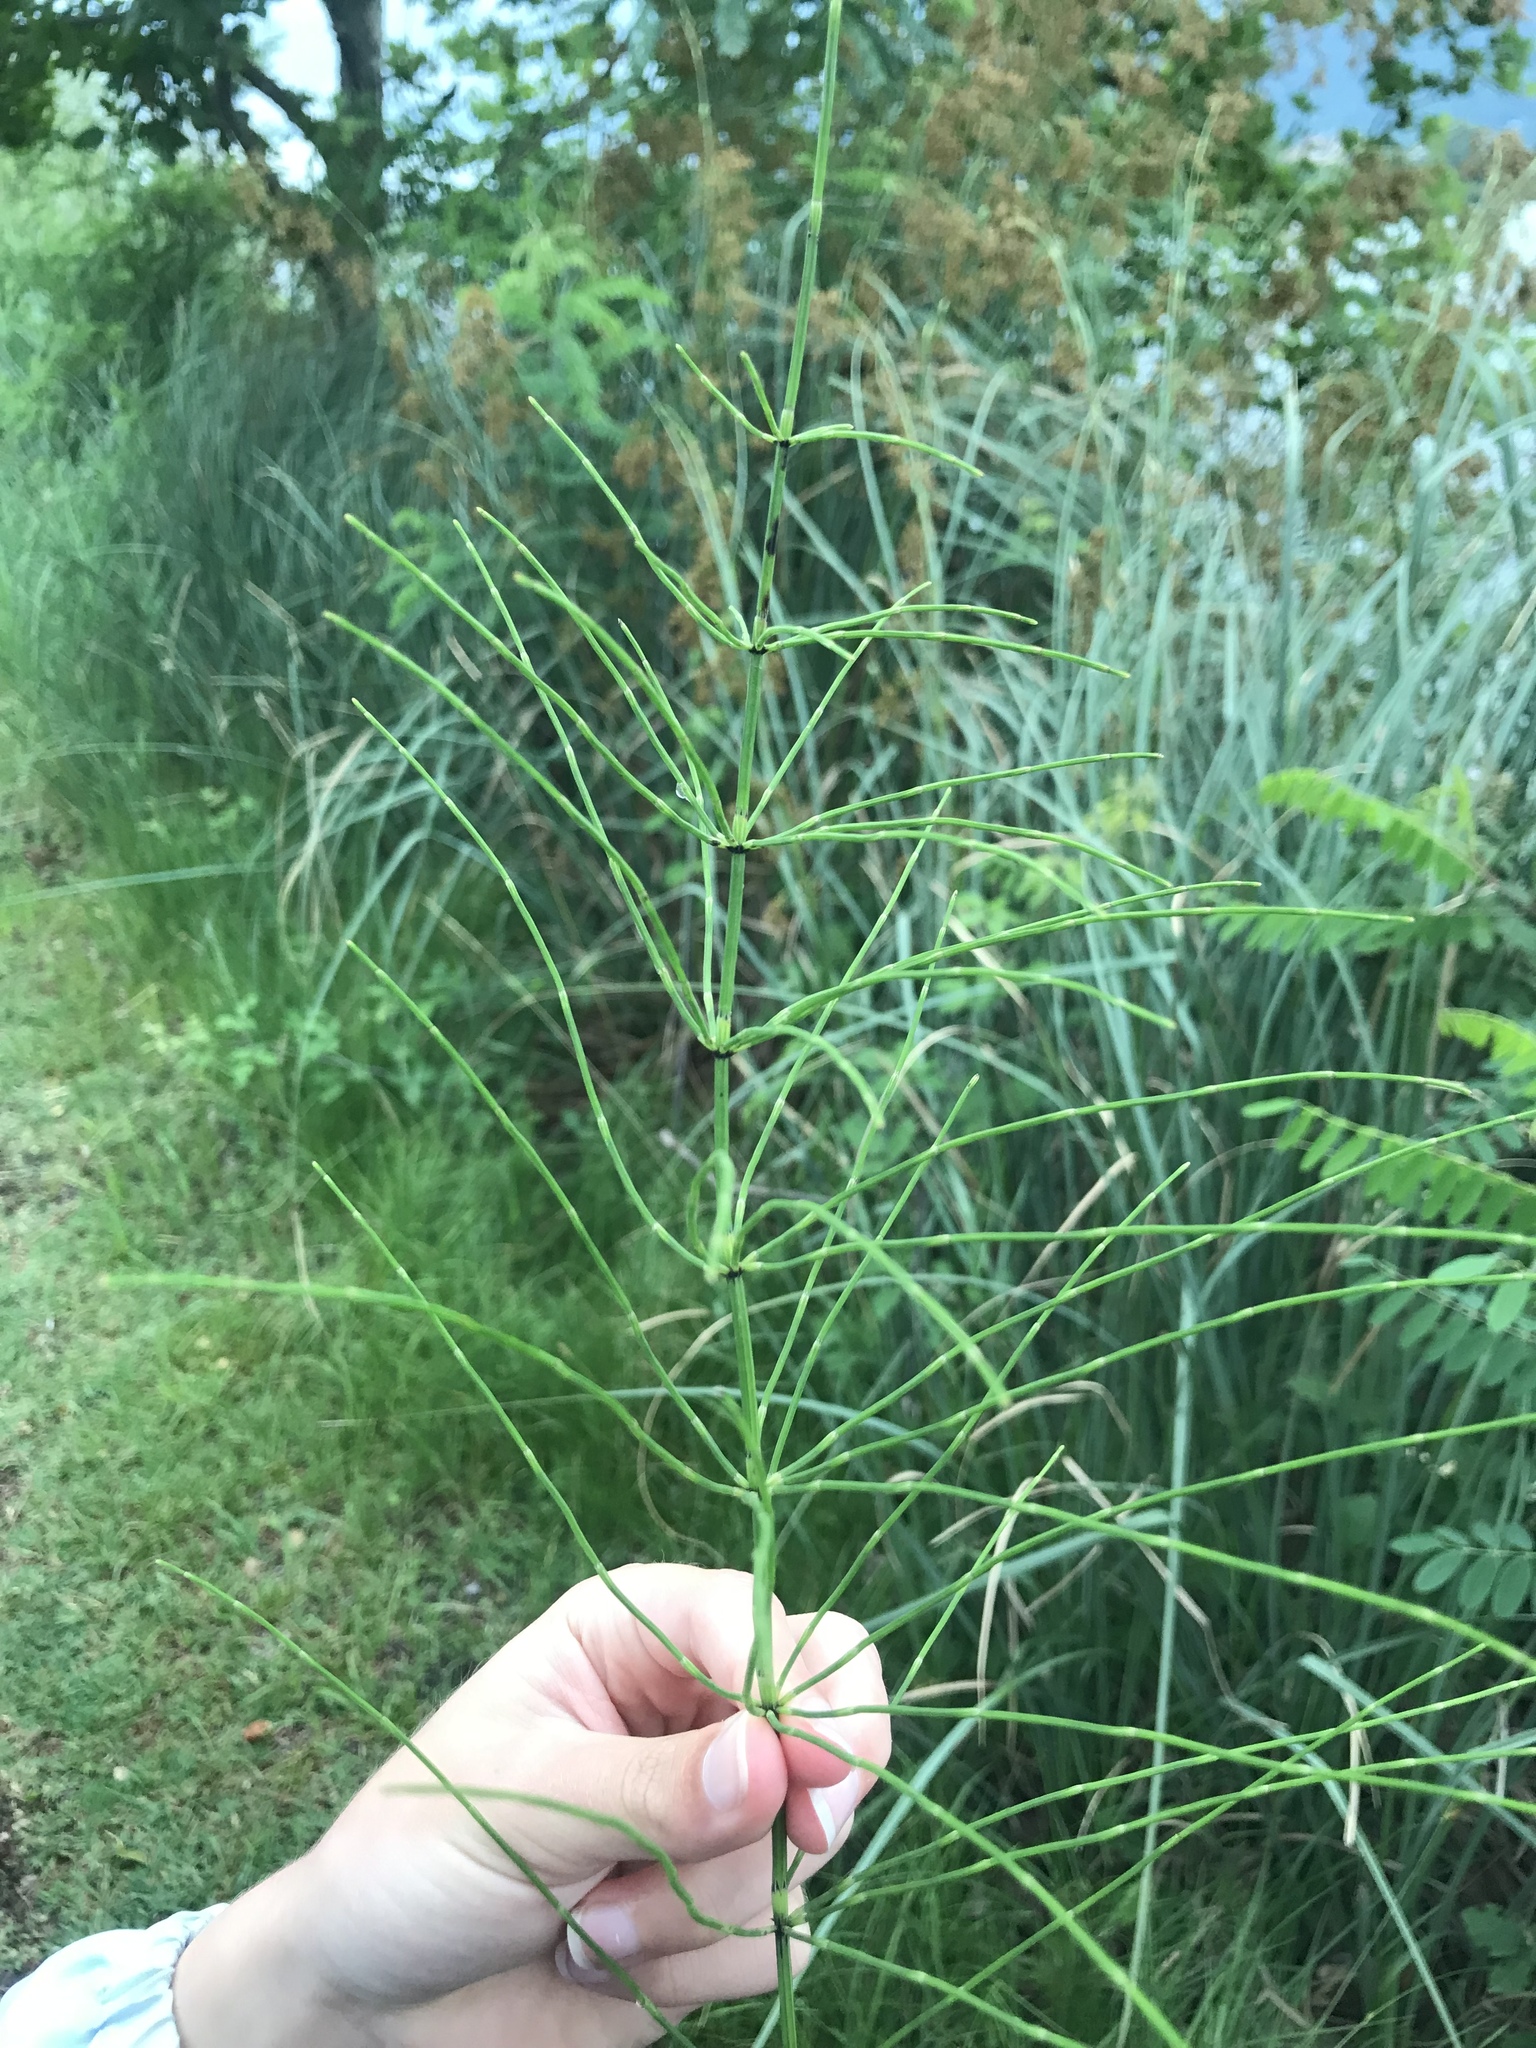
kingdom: Plantae
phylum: Tracheophyta
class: Polypodiopsida
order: Equisetales
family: Equisetaceae
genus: Equisetum
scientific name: Equisetum palustre
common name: Marsh horsetail
